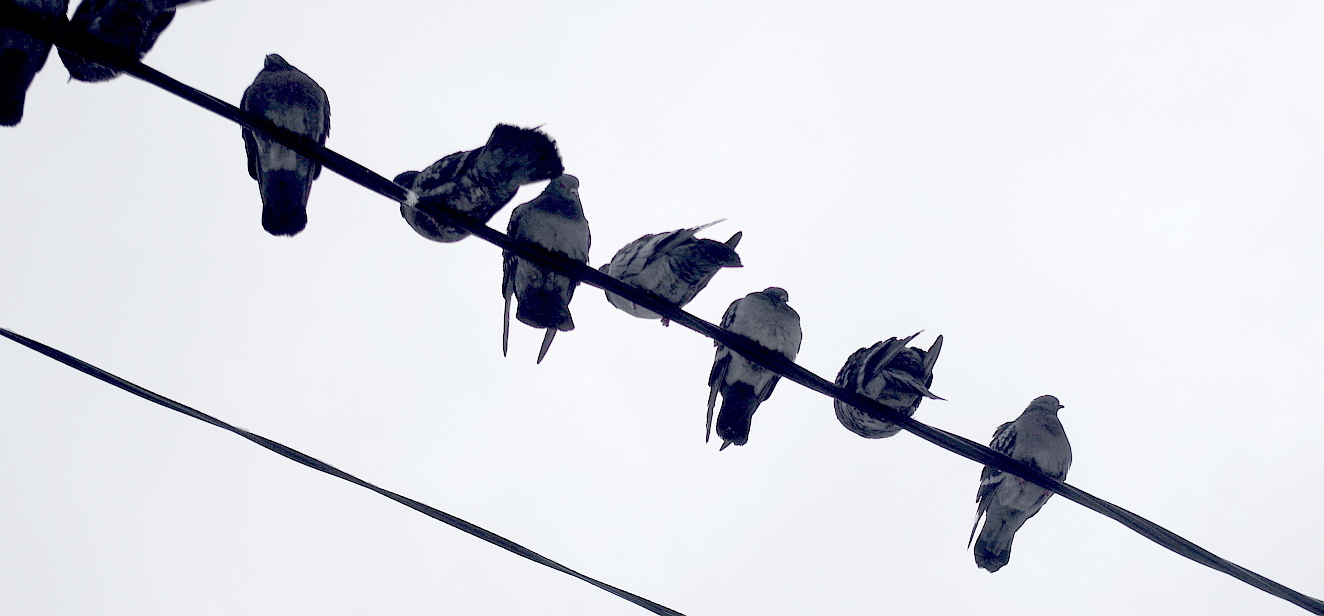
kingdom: Animalia
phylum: Chordata
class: Aves
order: Columbiformes
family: Columbidae
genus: Columba
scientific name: Columba livia
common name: Rock pigeon
